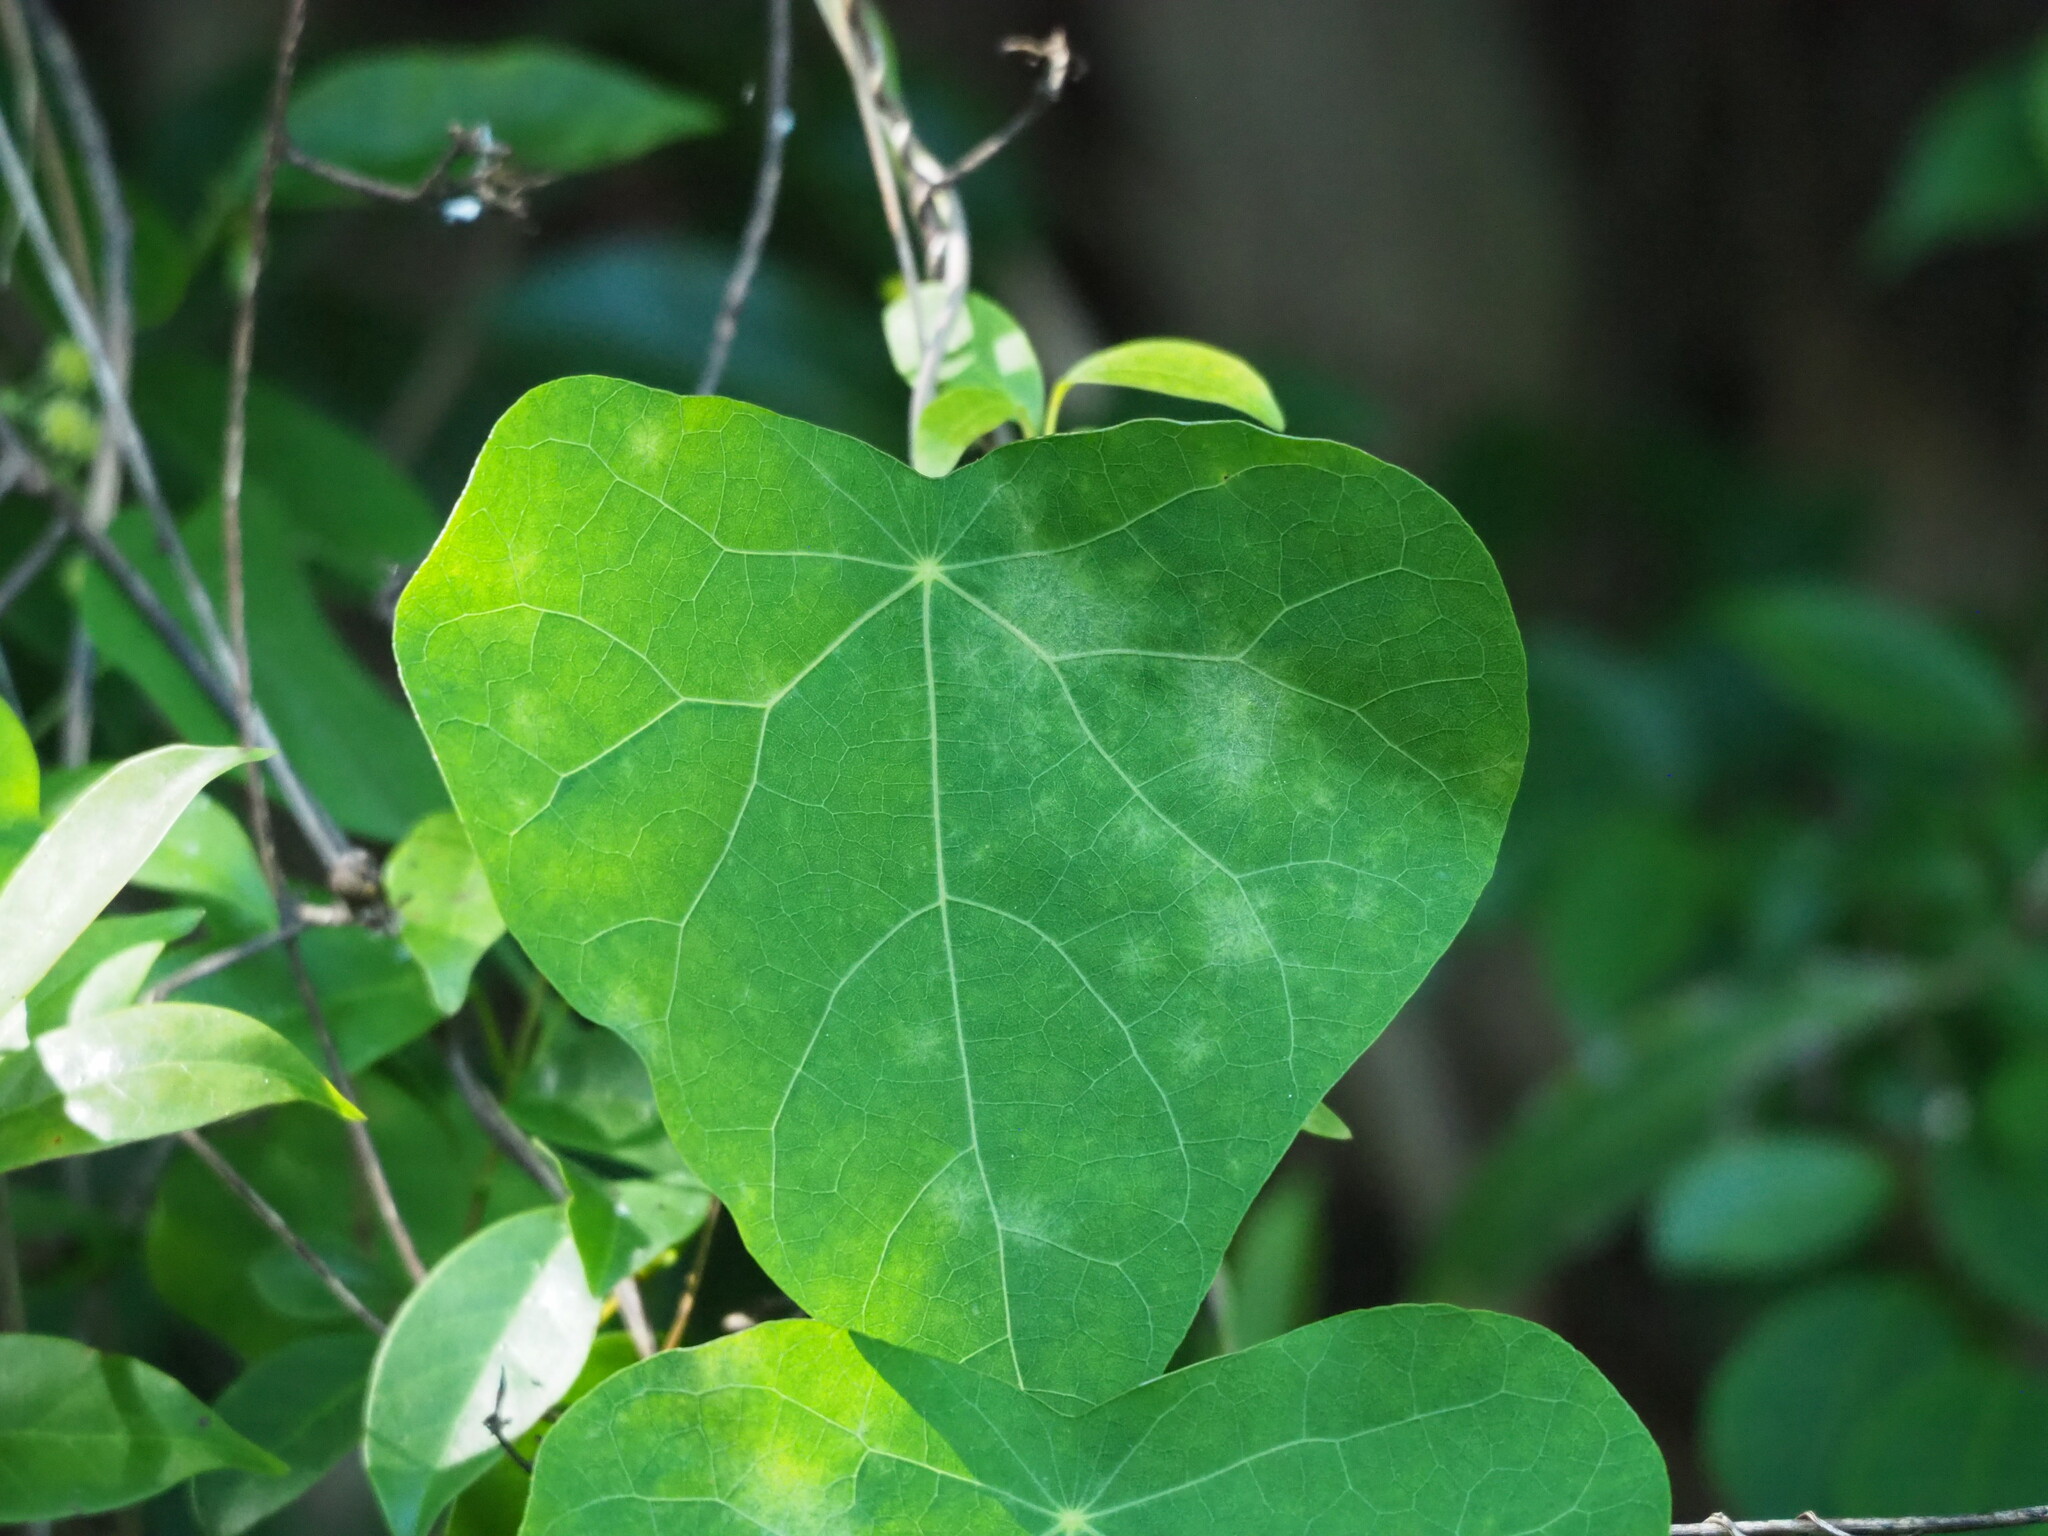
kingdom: Plantae
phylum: Tracheophyta
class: Magnoliopsida
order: Ranunculales
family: Menispermaceae
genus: Stephania
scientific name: Stephania tetrandra
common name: Stephania-root
